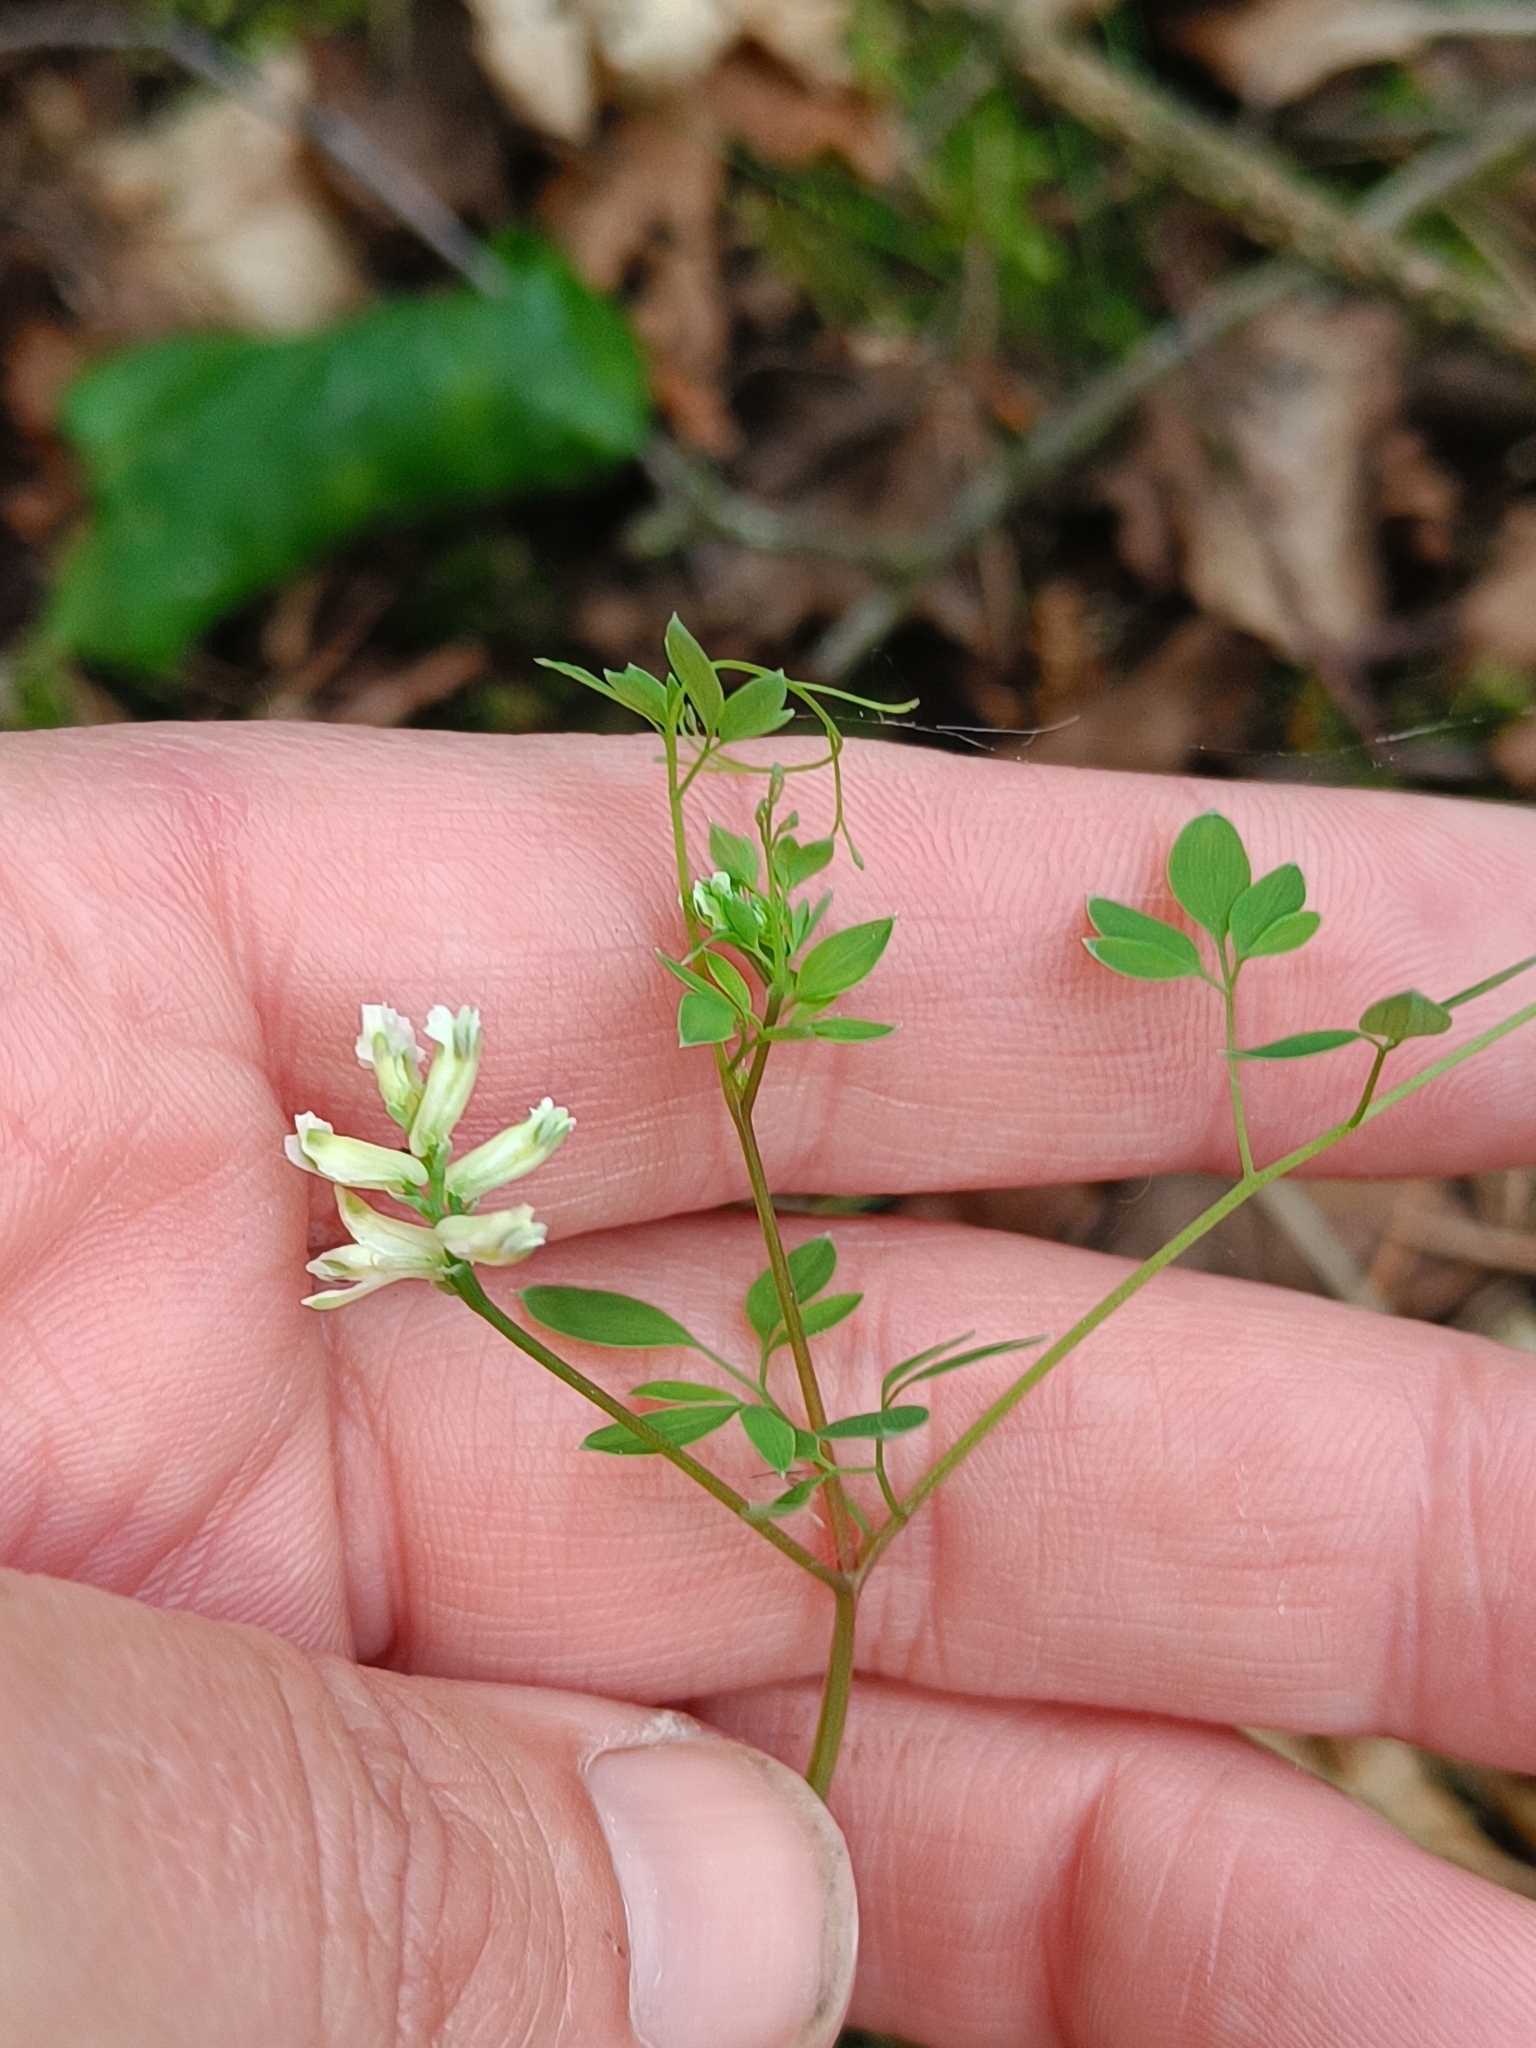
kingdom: Plantae
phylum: Tracheophyta
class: Magnoliopsida
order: Ranunculales
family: Papaveraceae
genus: Ceratocapnos
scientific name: Ceratocapnos claviculata
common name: Climbing corydalis
